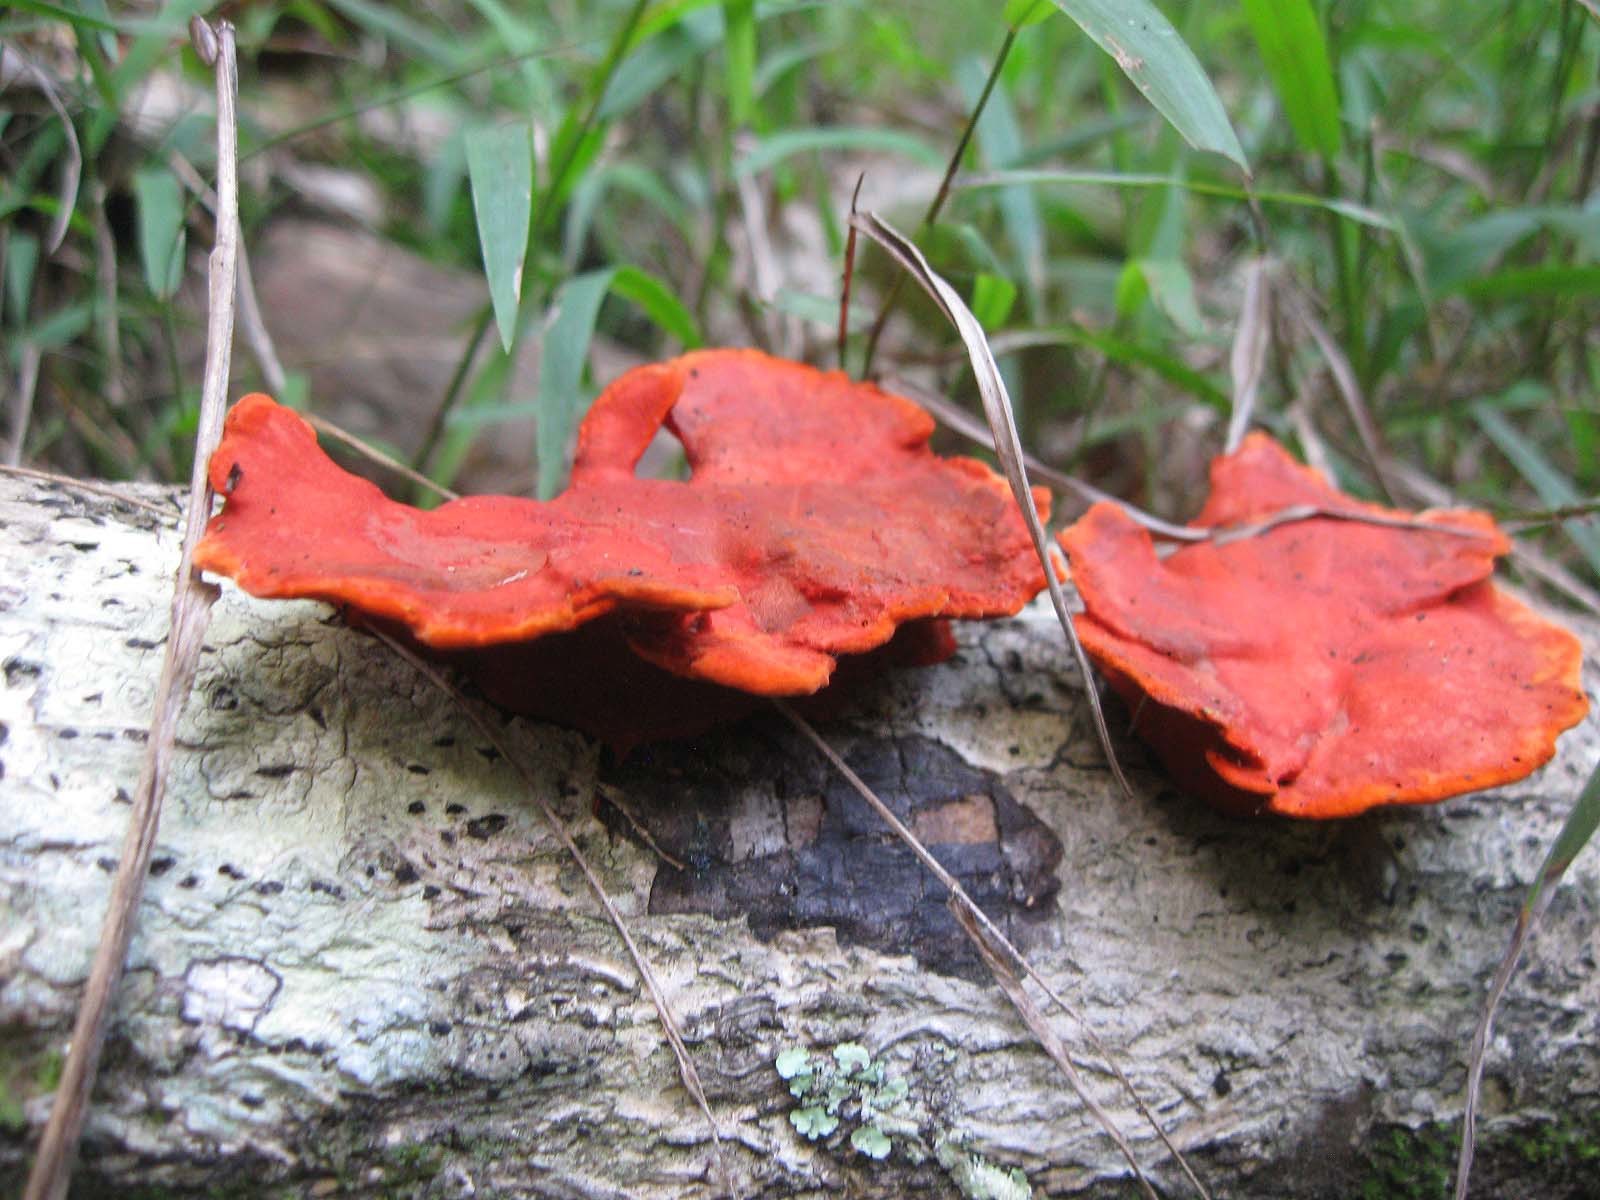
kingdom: Fungi
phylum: Basidiomycota
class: Agaricomycetes
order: Polyporales
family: Polyporaceae
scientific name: Polyporaceae
